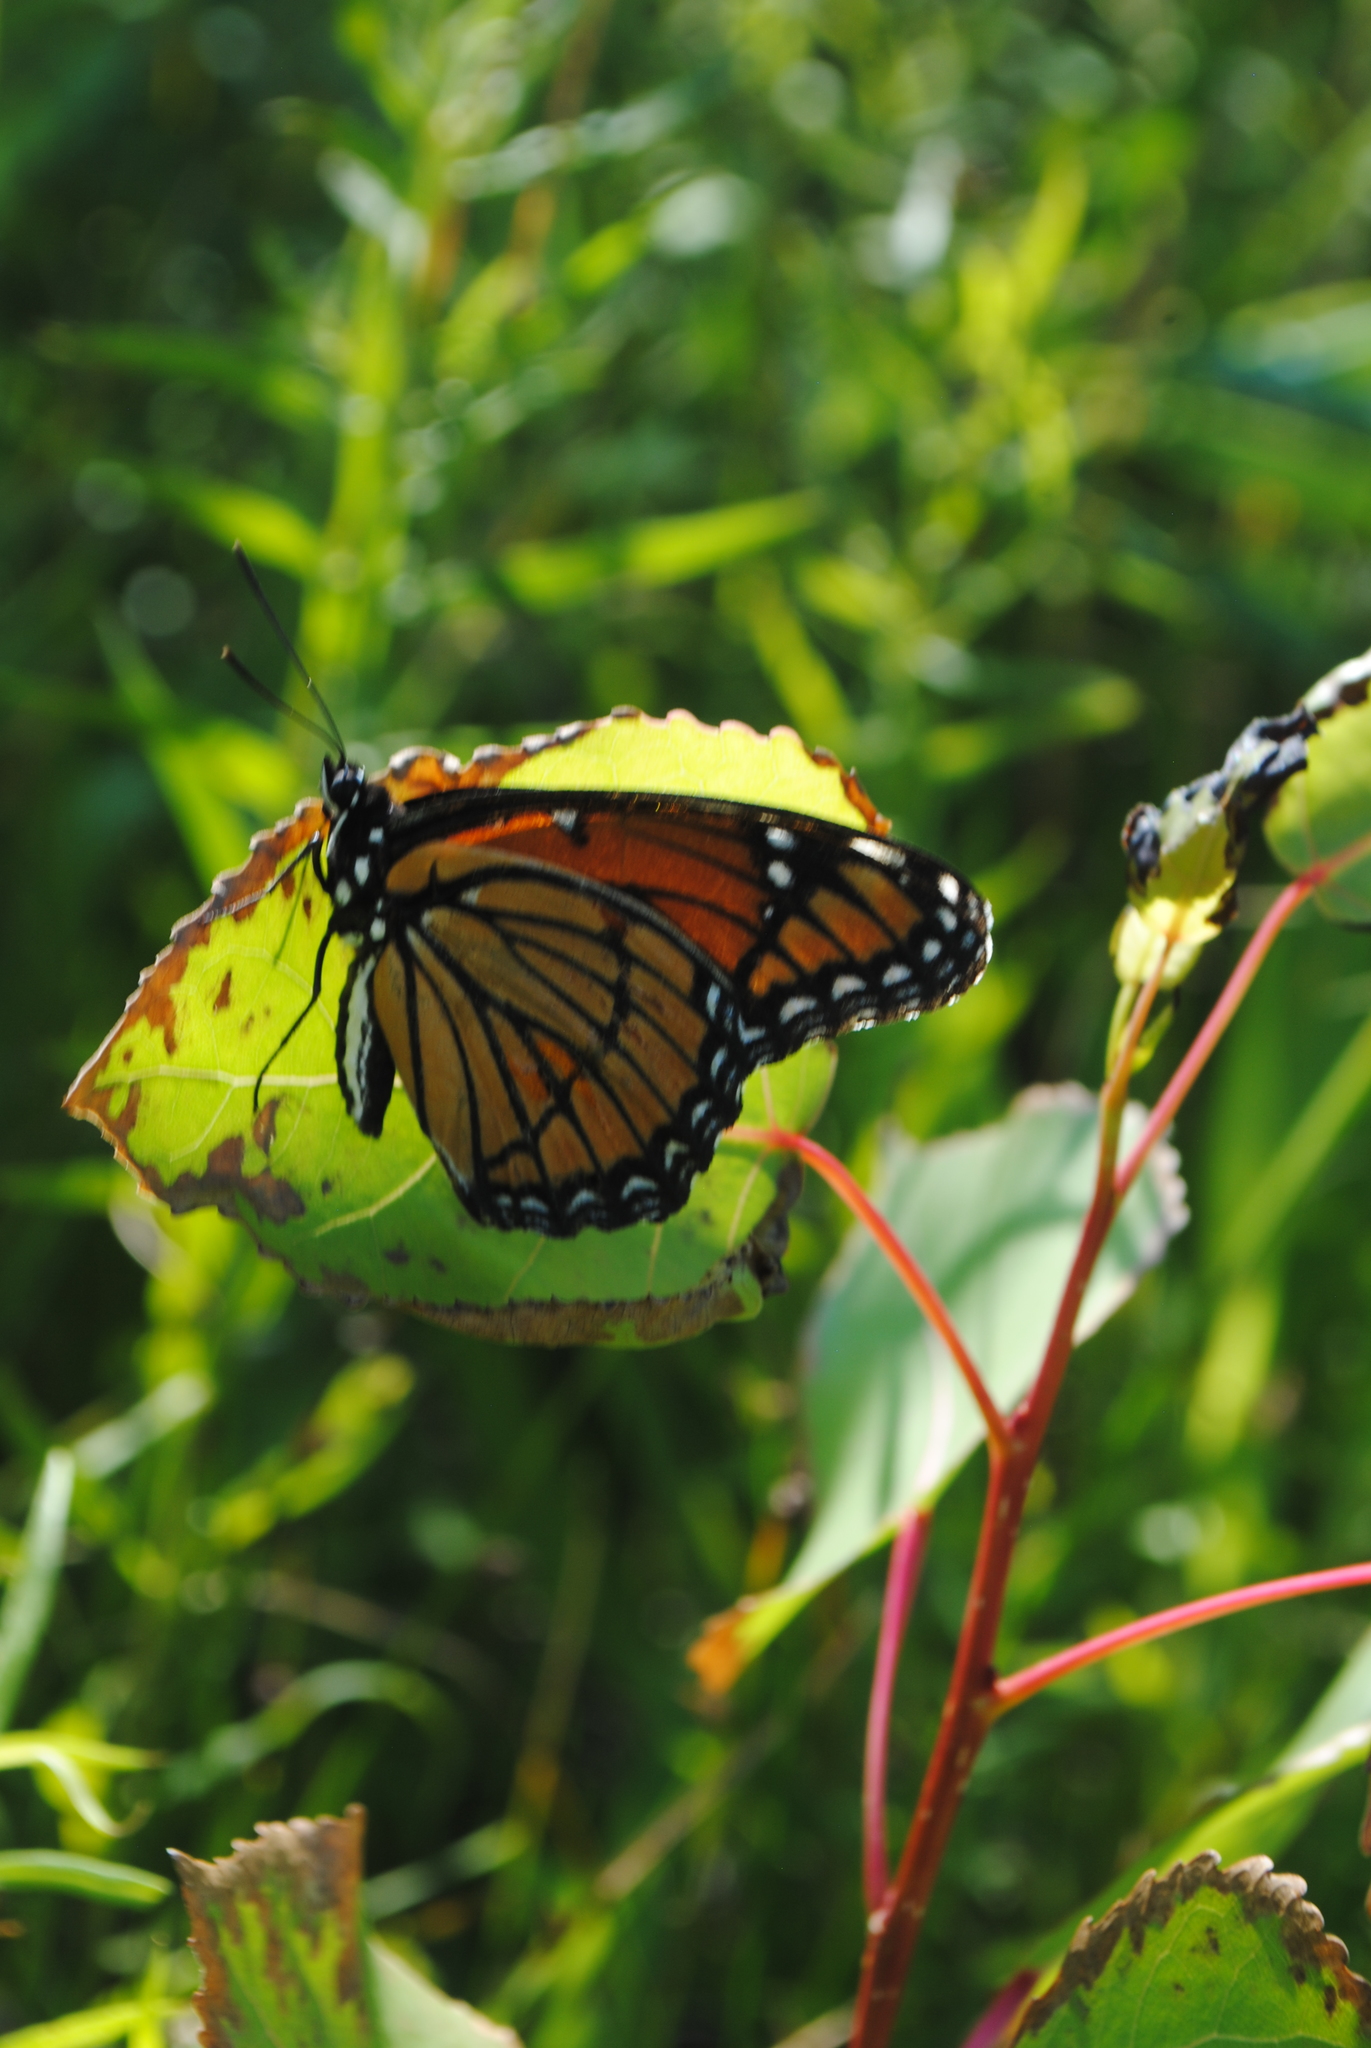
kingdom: Animalia
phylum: Arthropoda
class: Insecta
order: Lepidoptera
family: Nymphalidae
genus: Limenitis
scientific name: Limenitis archippus
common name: Viceroy
